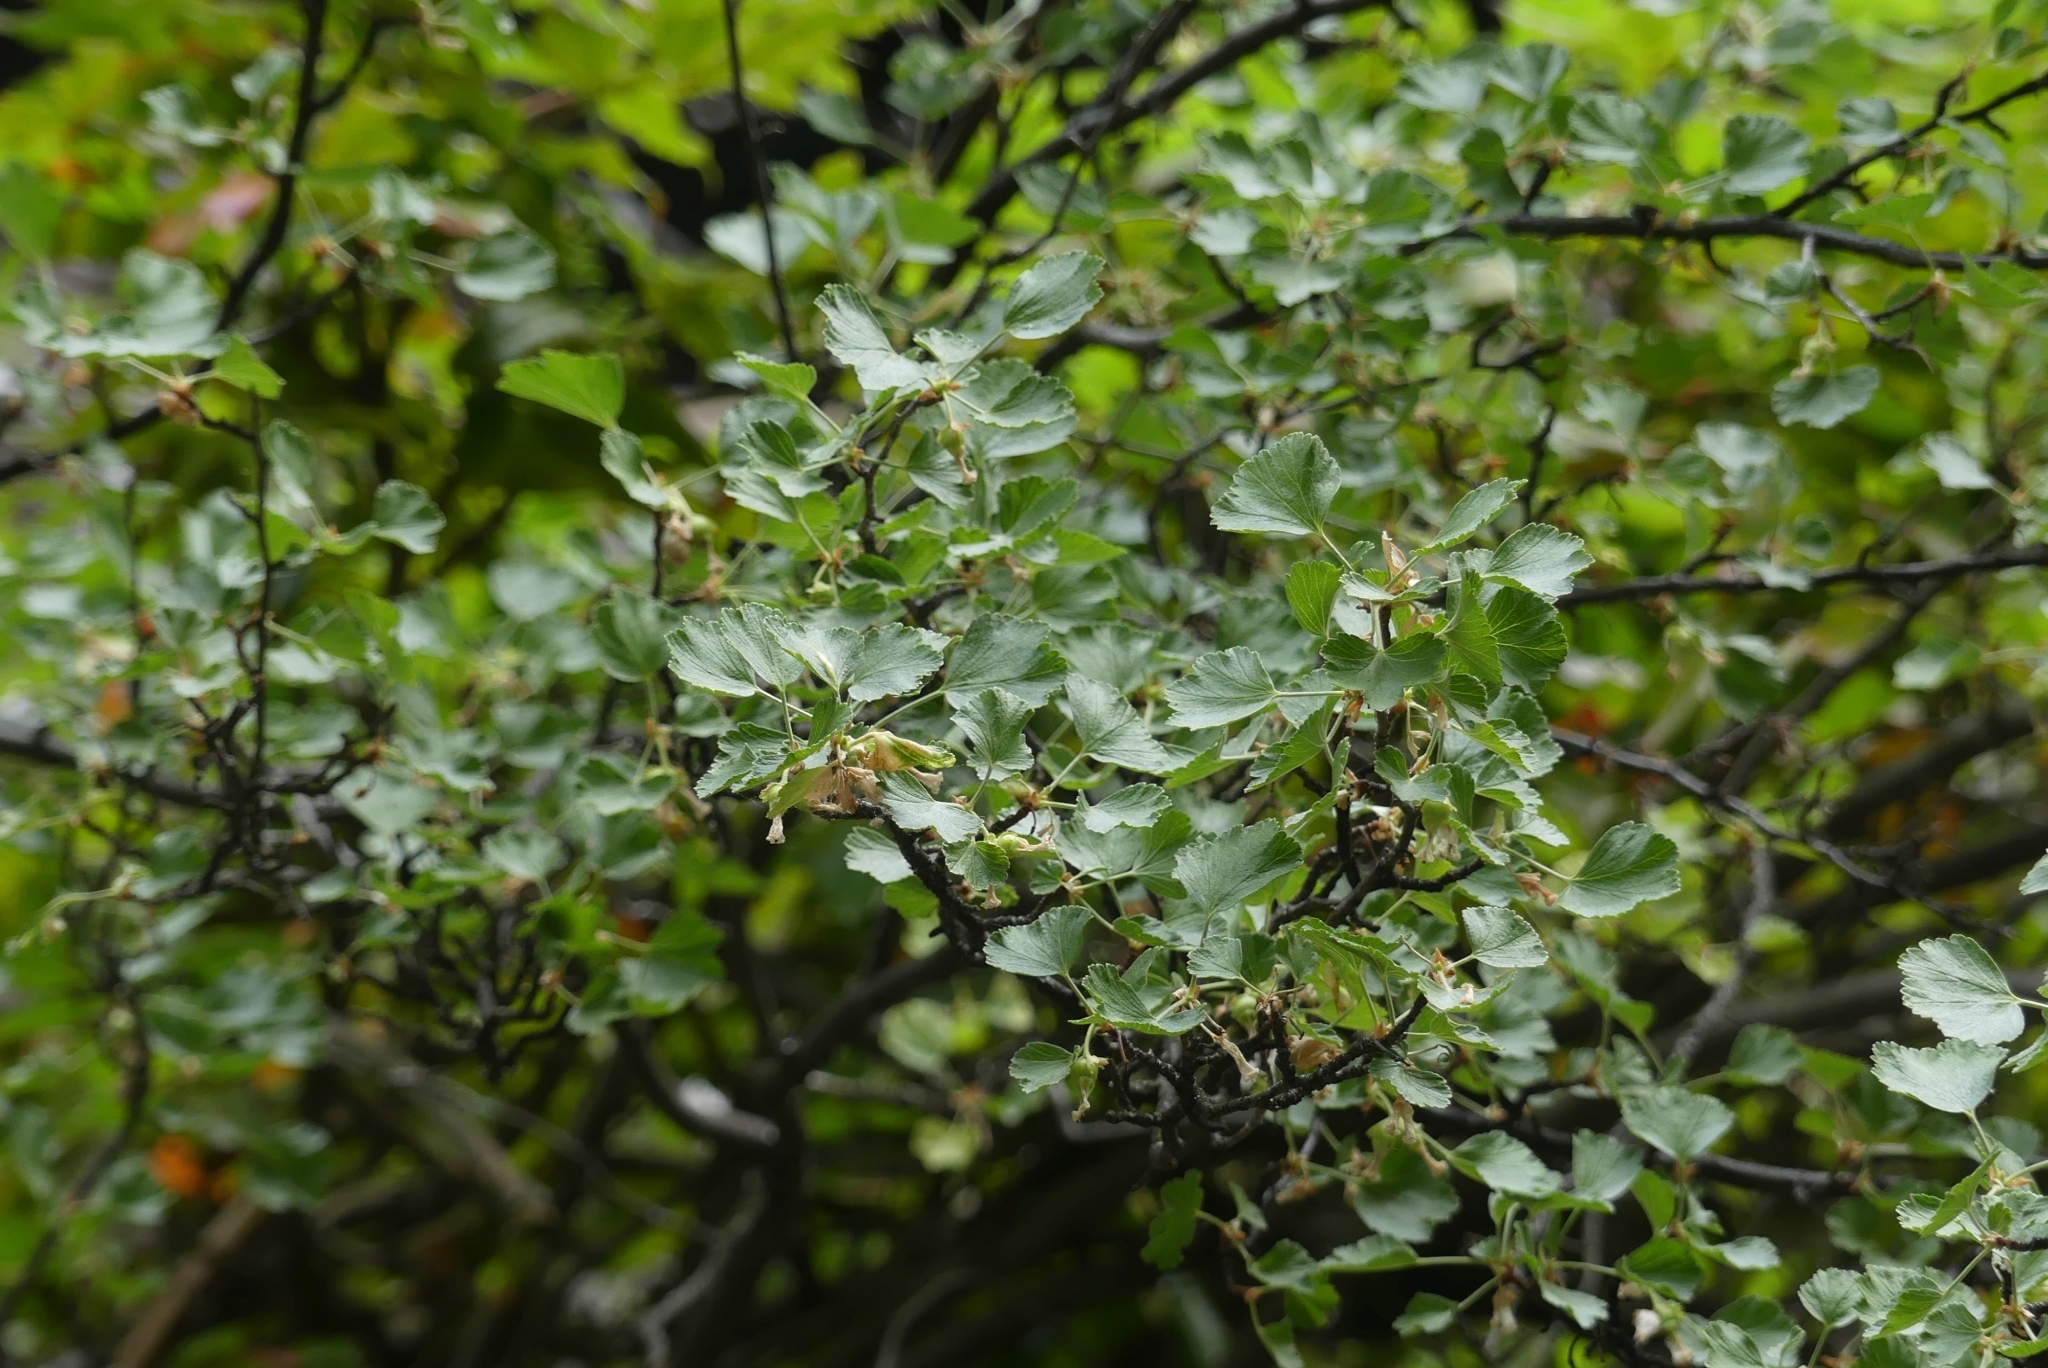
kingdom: Plantae
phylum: Tracheophyta
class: Magnoliopsida
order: Saxifragales
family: Grossulariaceae
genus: Ribes
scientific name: Ribes cereum
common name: Wax currant
